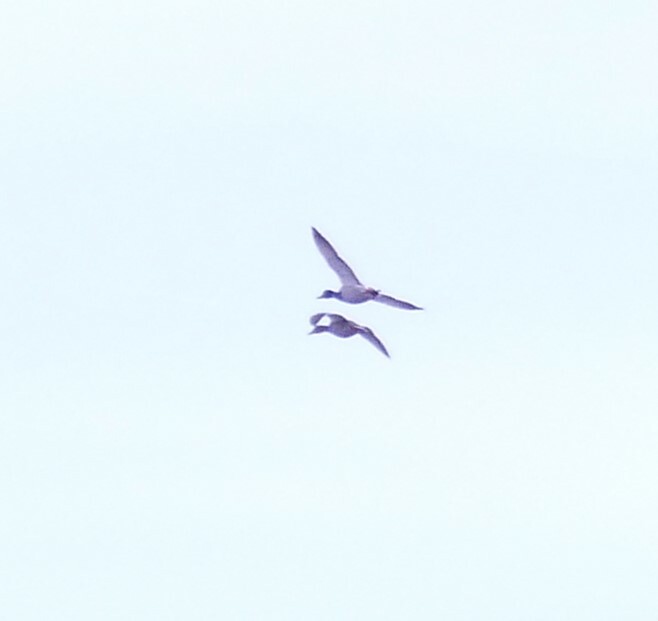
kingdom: Animalia
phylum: Chordata
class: Aves
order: Anseriformes
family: Anatidae
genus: Anas
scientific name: Anas platyrhynchos
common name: Mallard
